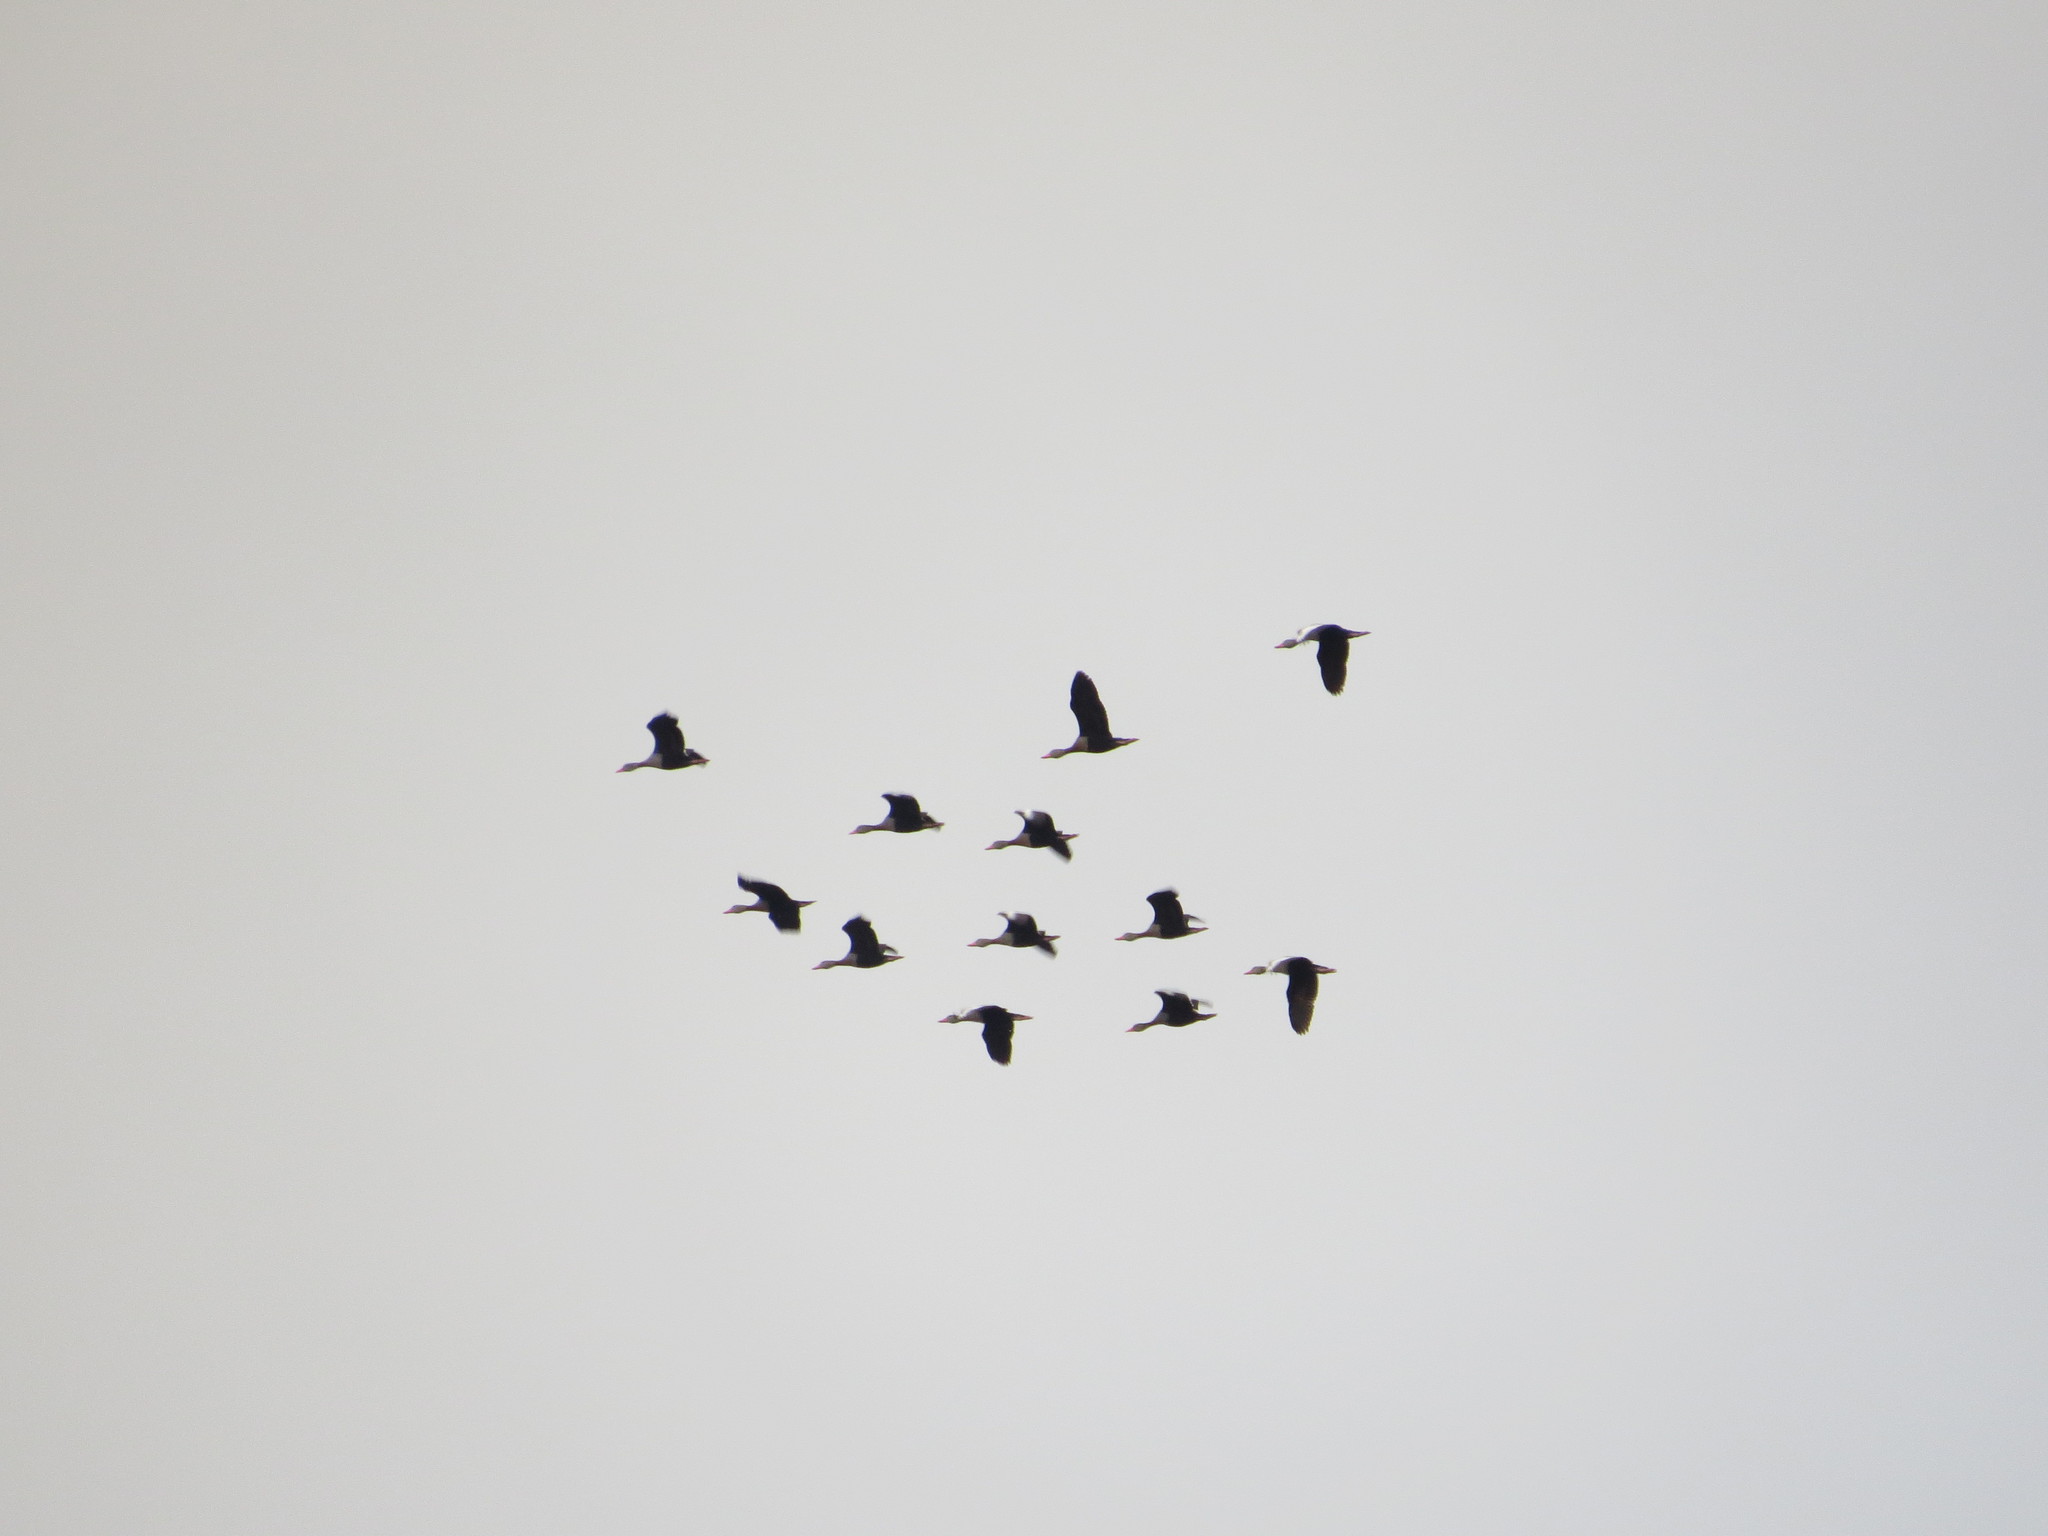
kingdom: Animalia
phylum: Chordata
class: Aves
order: Anseriformes
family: Anatidae
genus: Dendrocygna
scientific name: Dendrocygna autumnalis
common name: Black-bellied whistling duck
